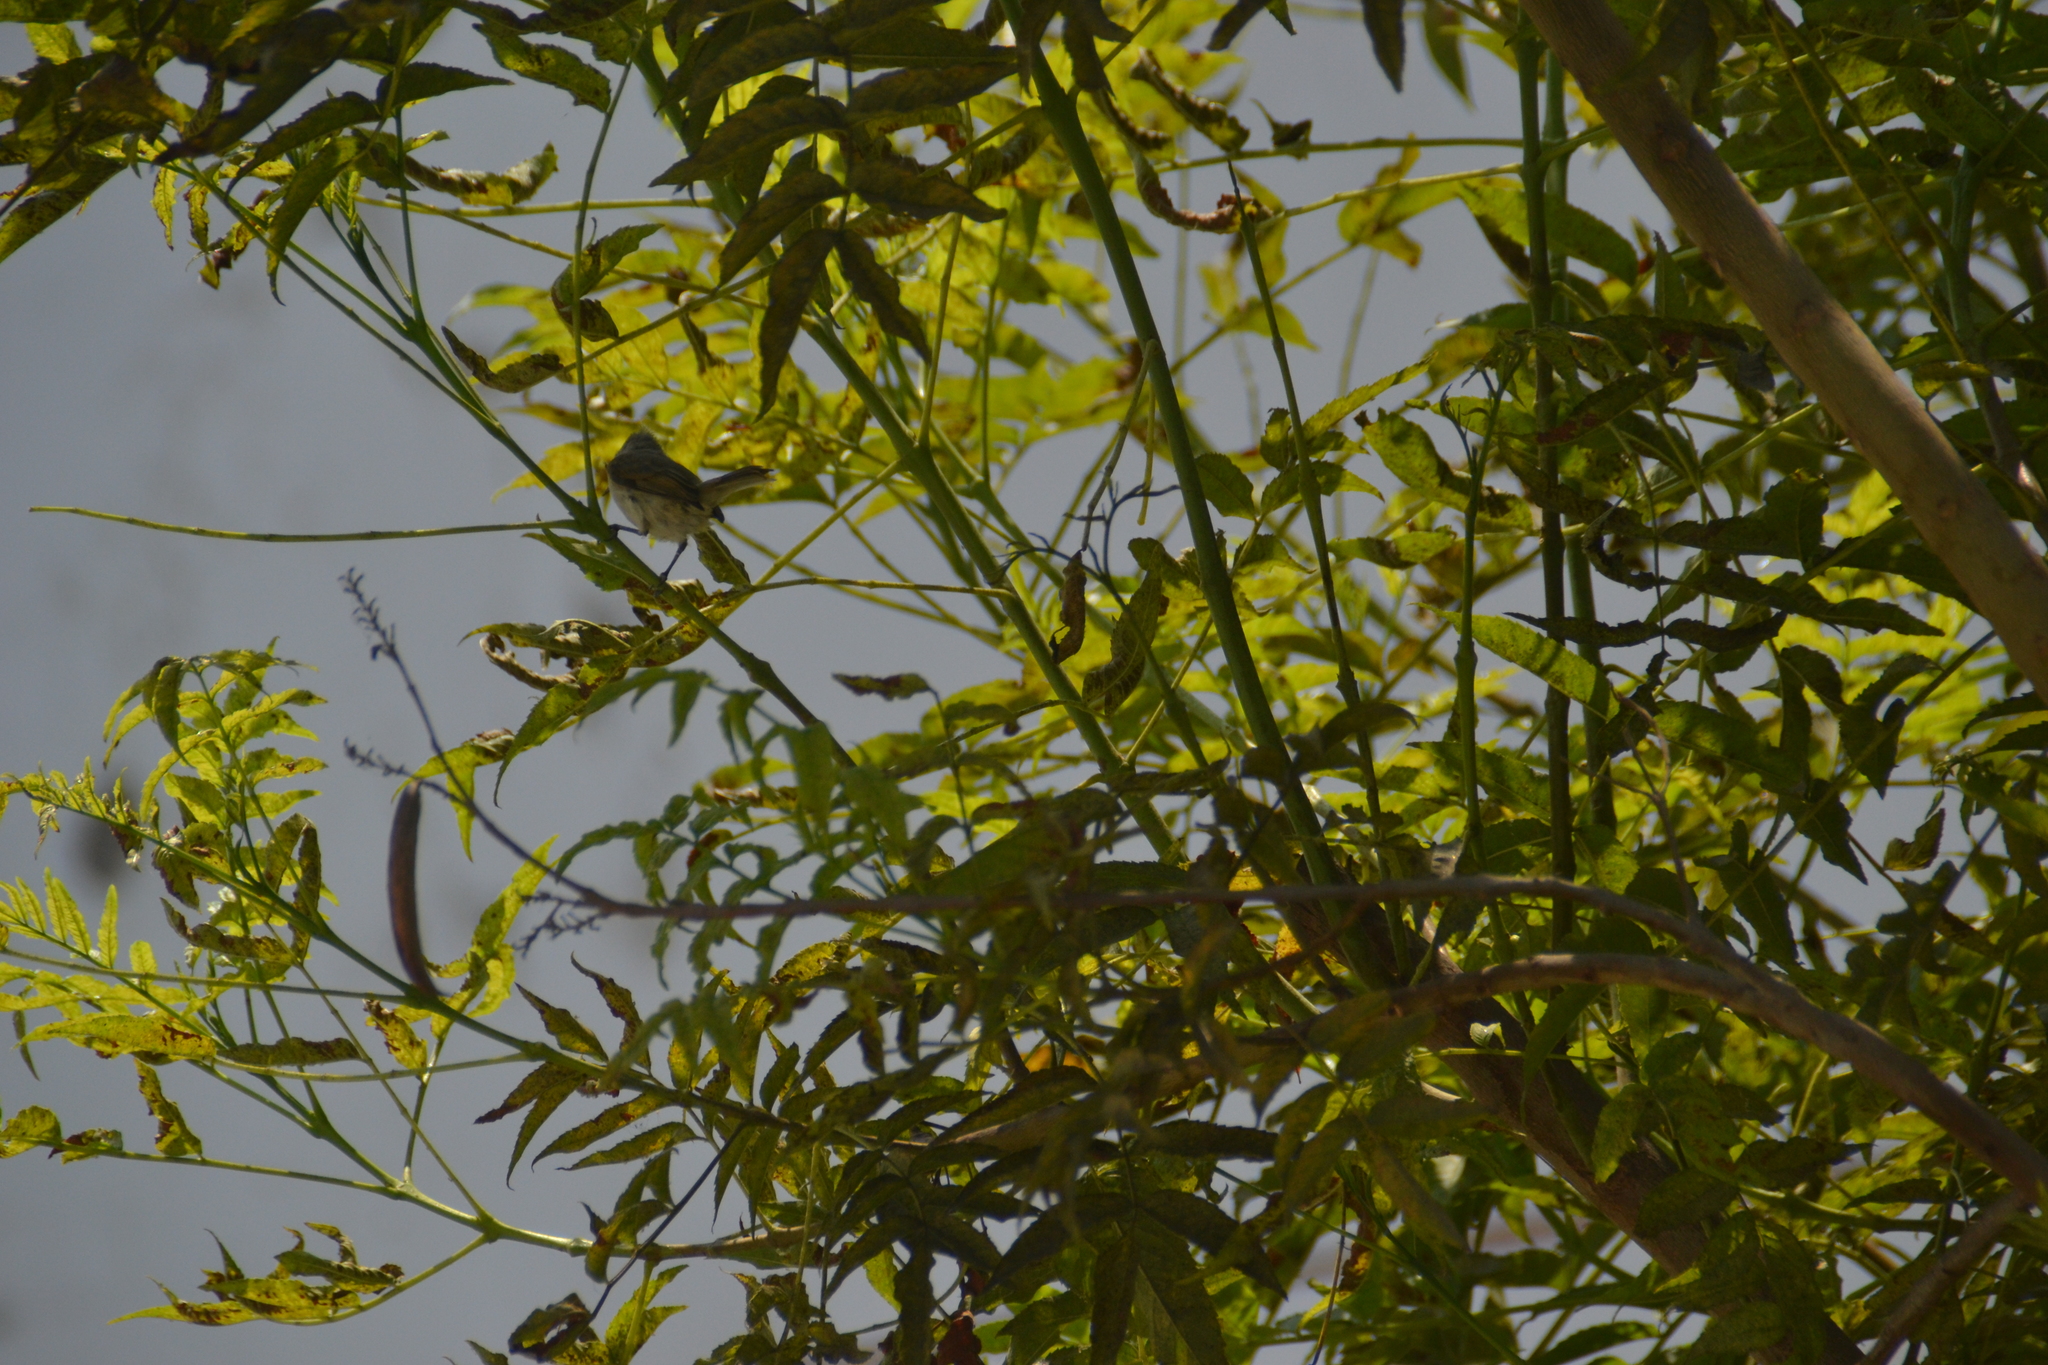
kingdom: Animalia
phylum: Chordata
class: Aves
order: Passeriformes
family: Tyrannidae
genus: Camptostoma
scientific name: Camptostoma obsoletum
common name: Southern beardless-tyrannulet
